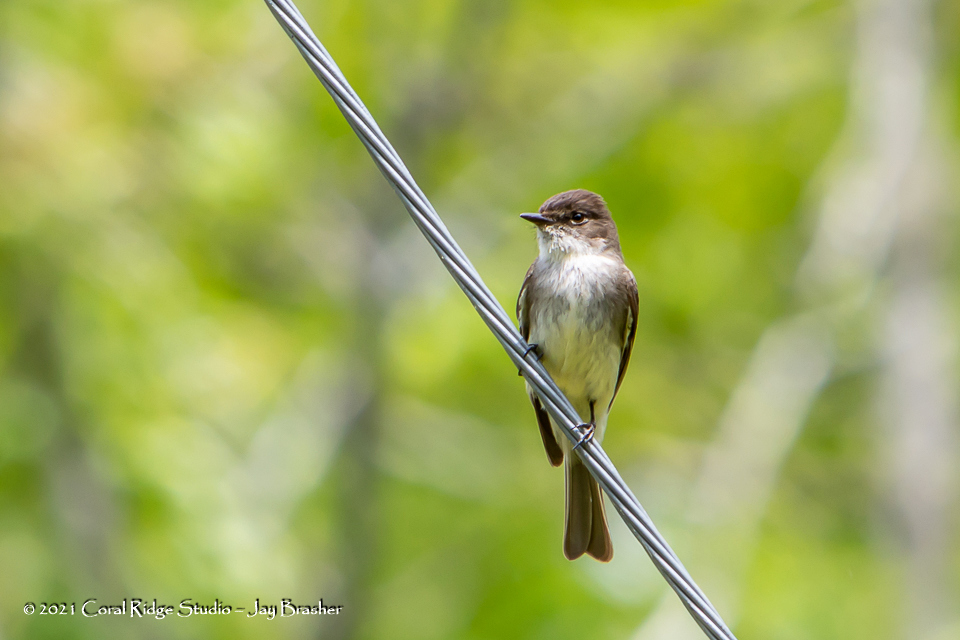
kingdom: Animalia
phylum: Chordata
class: Aves
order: Passeriformes
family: Tyrannidae
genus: Sayornis
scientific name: Sayornis phoebe
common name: Eastern phoebe
